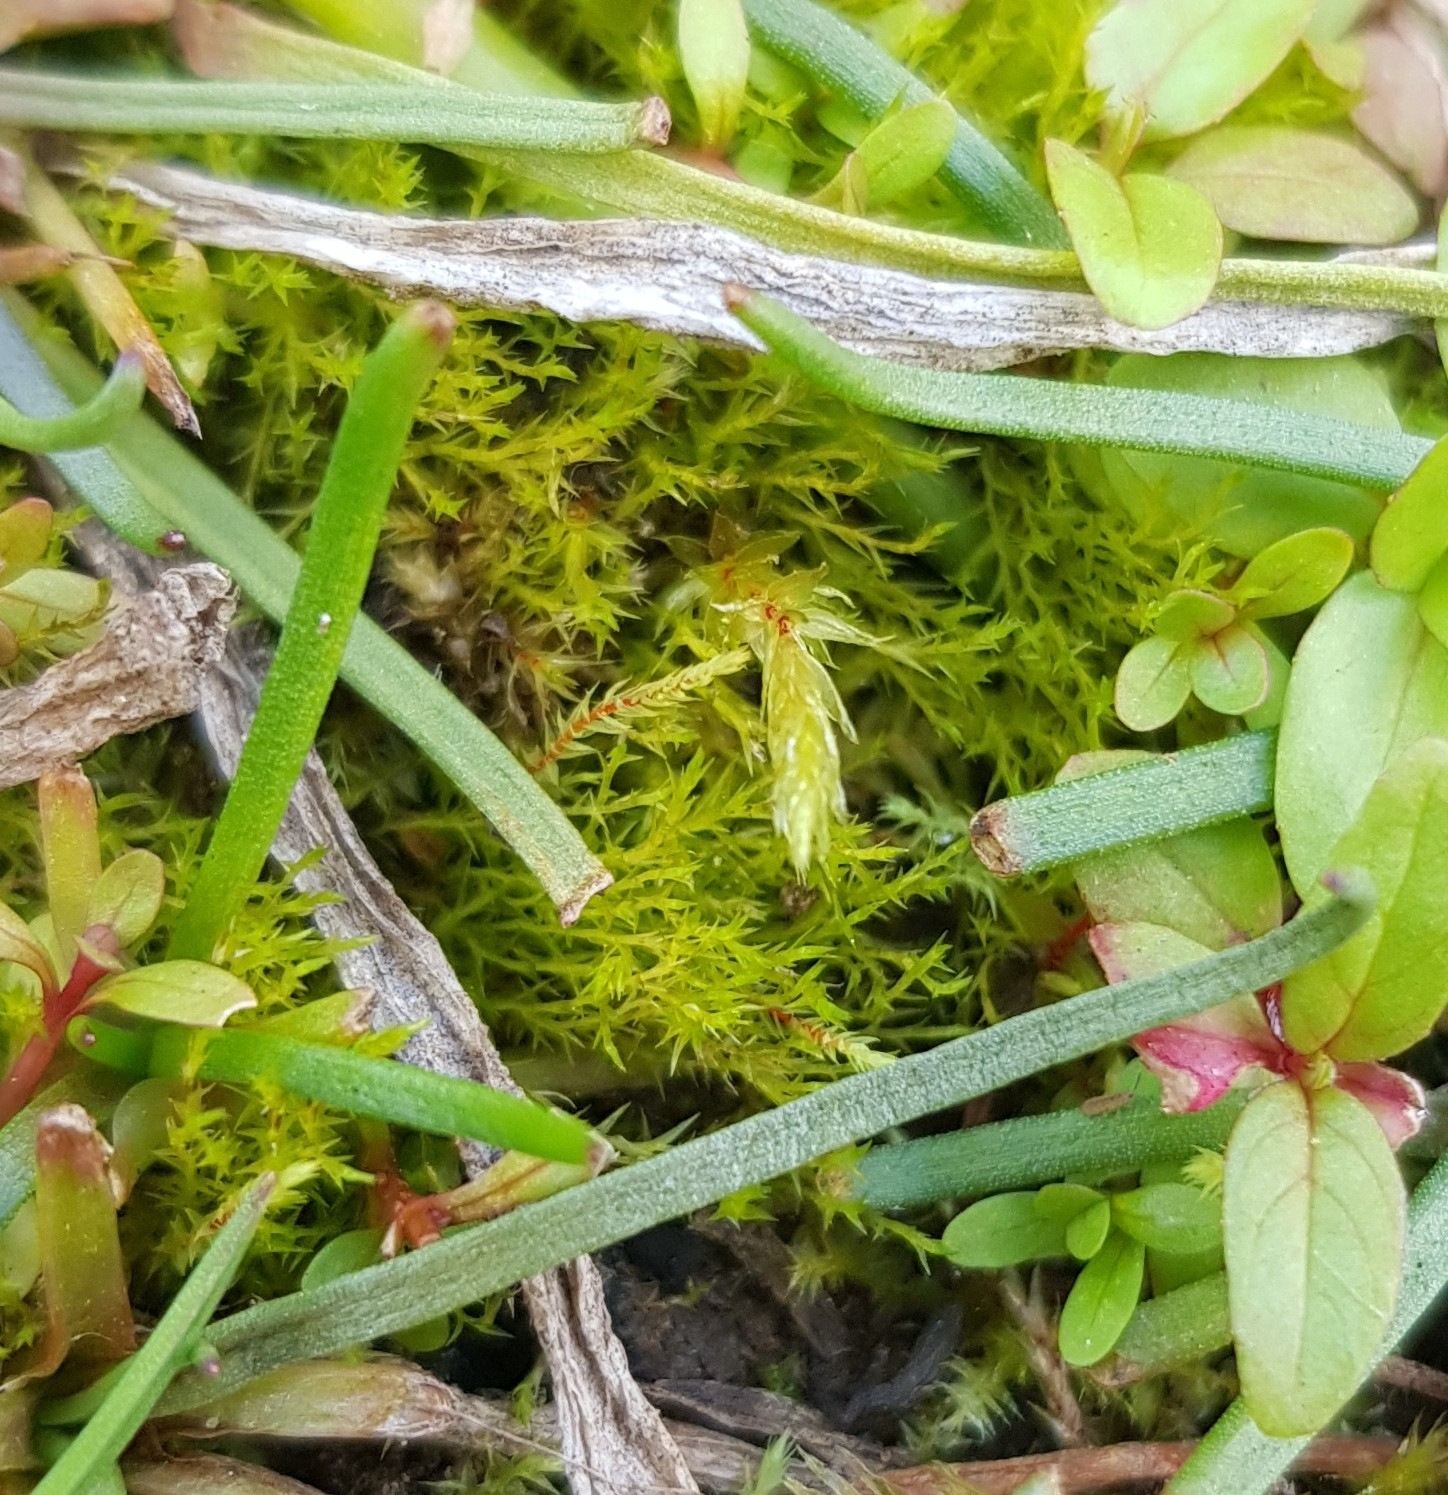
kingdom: Plantae
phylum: Bryophyta
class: Bryopsida
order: Archidiales
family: Archidiaceae
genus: Archidium
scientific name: Archidium alternifolium
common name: Clay earth-moss
